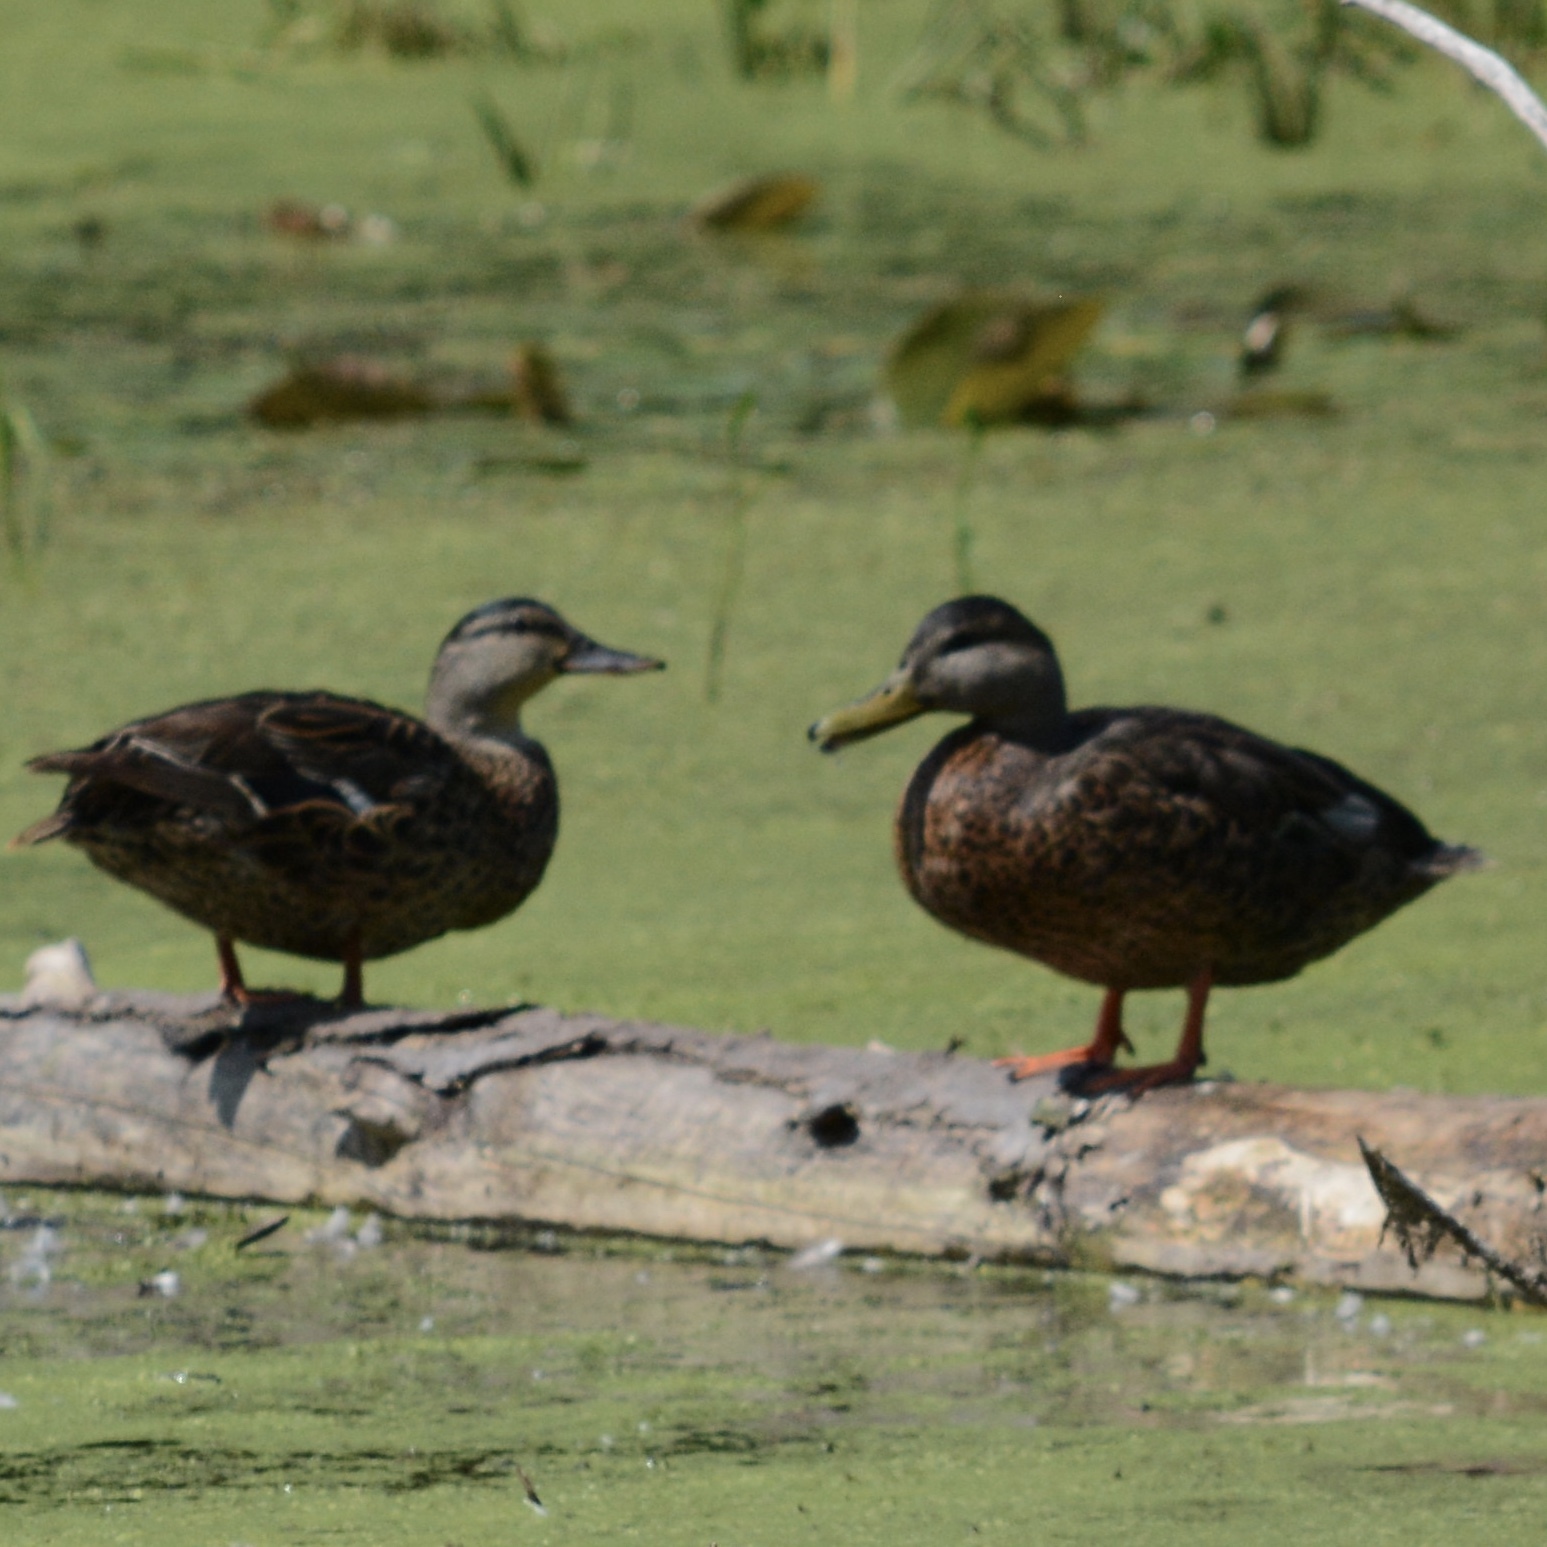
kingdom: Animalia
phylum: Chordata
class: Aves
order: Anseriformes
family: Anatidae
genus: Anas
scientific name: Anas rubripes
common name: American black duck
